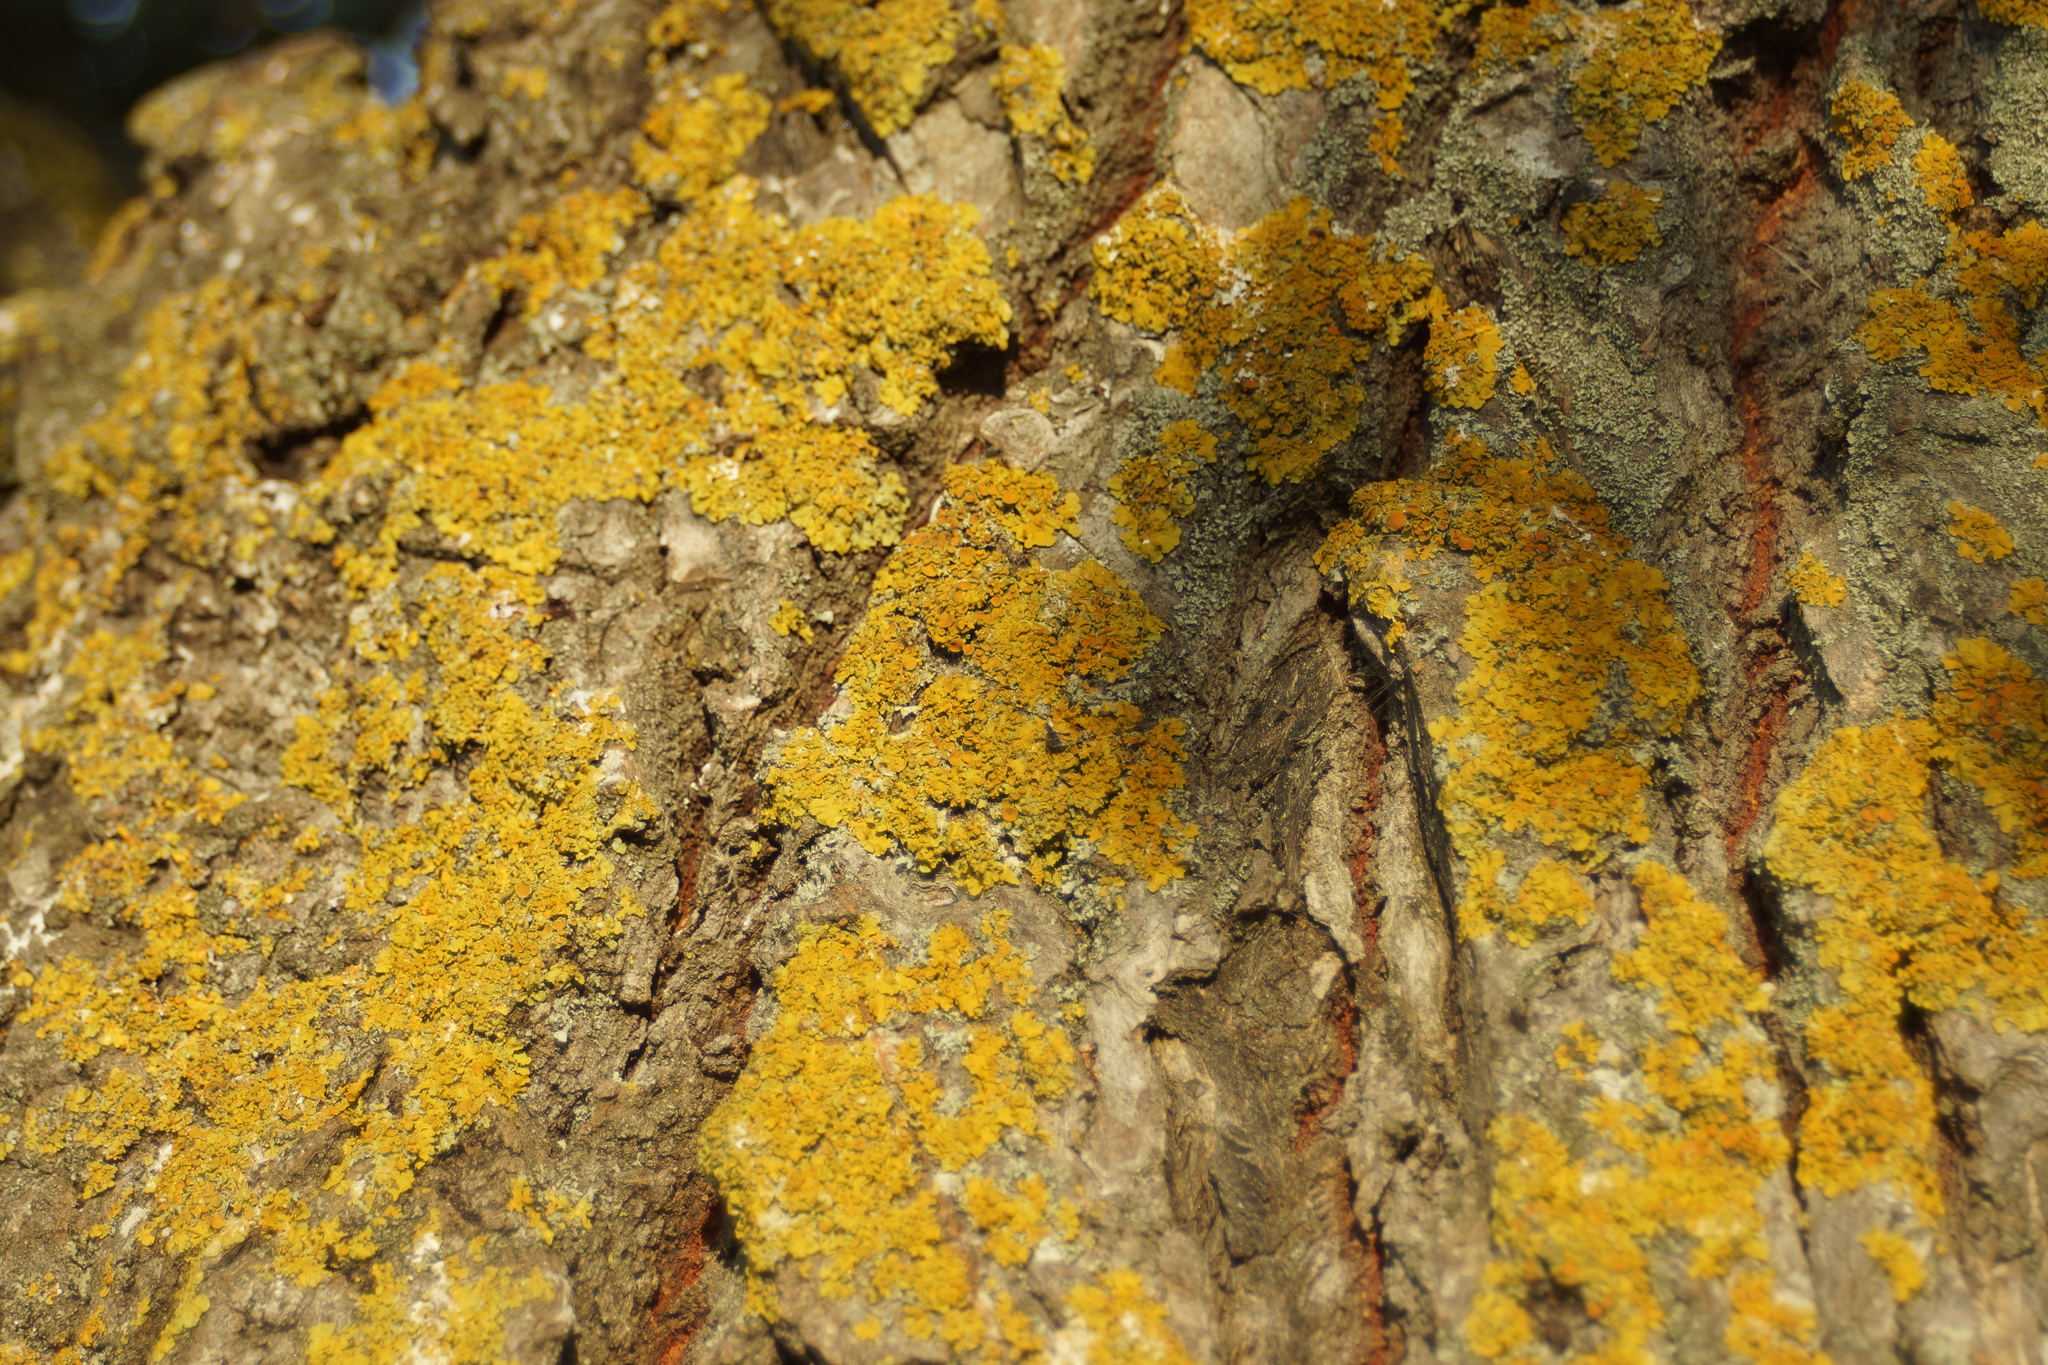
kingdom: Fungi
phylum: Ascomycota
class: Lecanoromycetes
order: Teloschistales
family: Teloschistaceae
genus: Xanthoria
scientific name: Xanthoria parietina
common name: Common orange lichen
